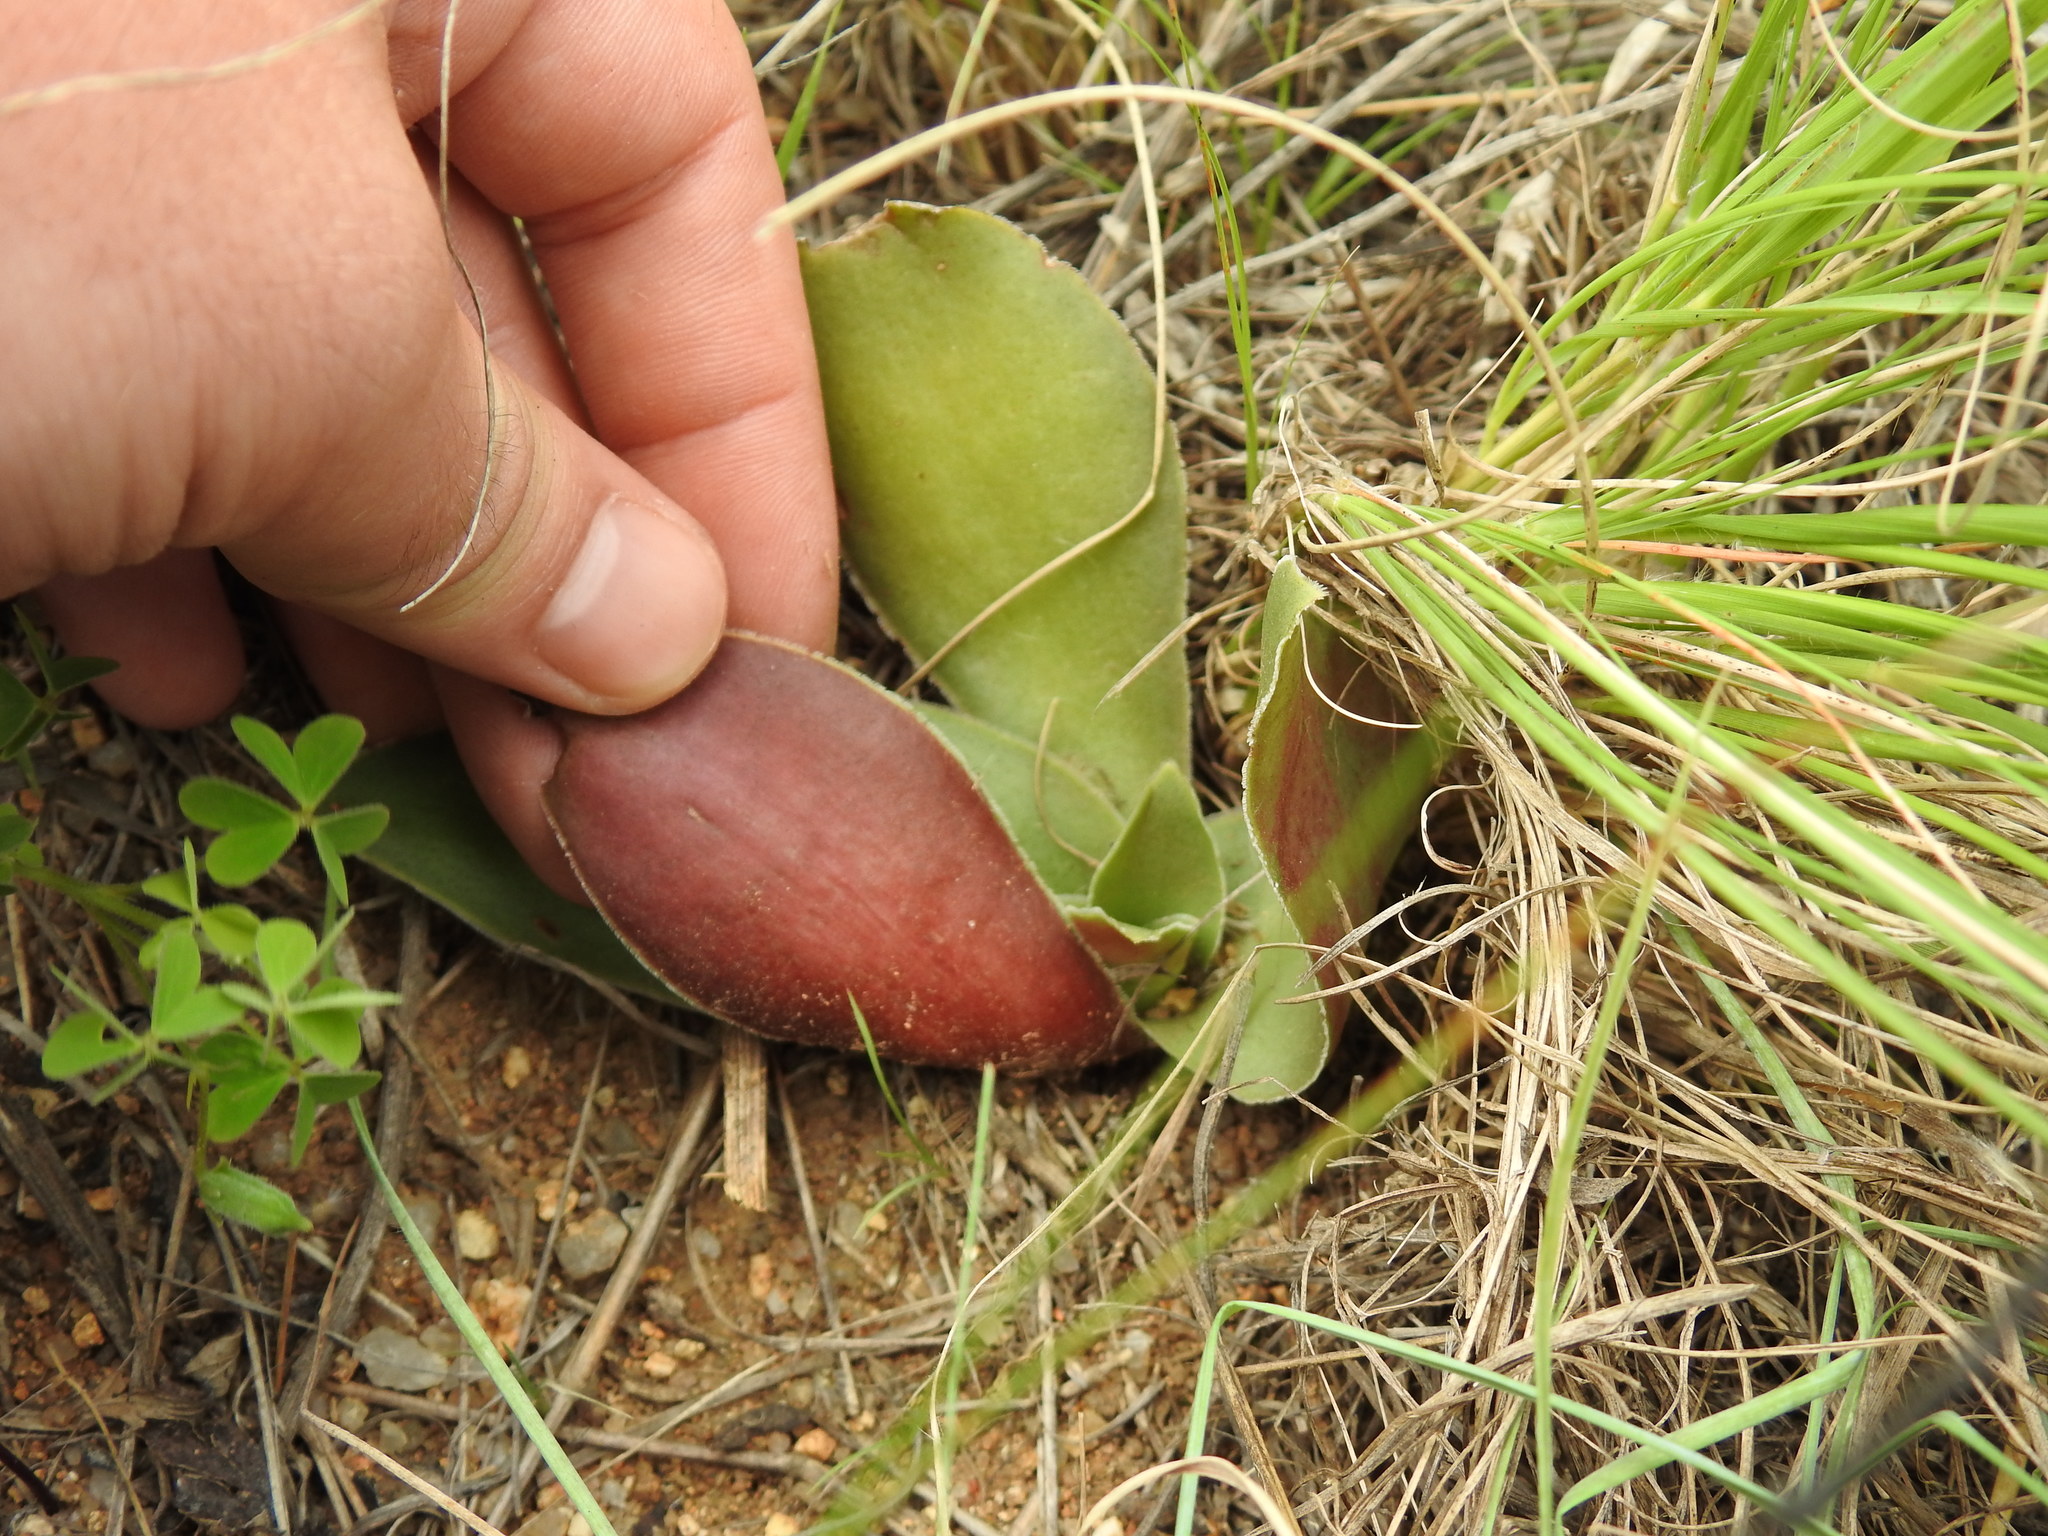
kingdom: Plantae
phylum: Tracheophyta
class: Magnoliopsida
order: Saxifragales
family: Crassulaceae
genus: Crassula
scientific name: Crassula capitella
